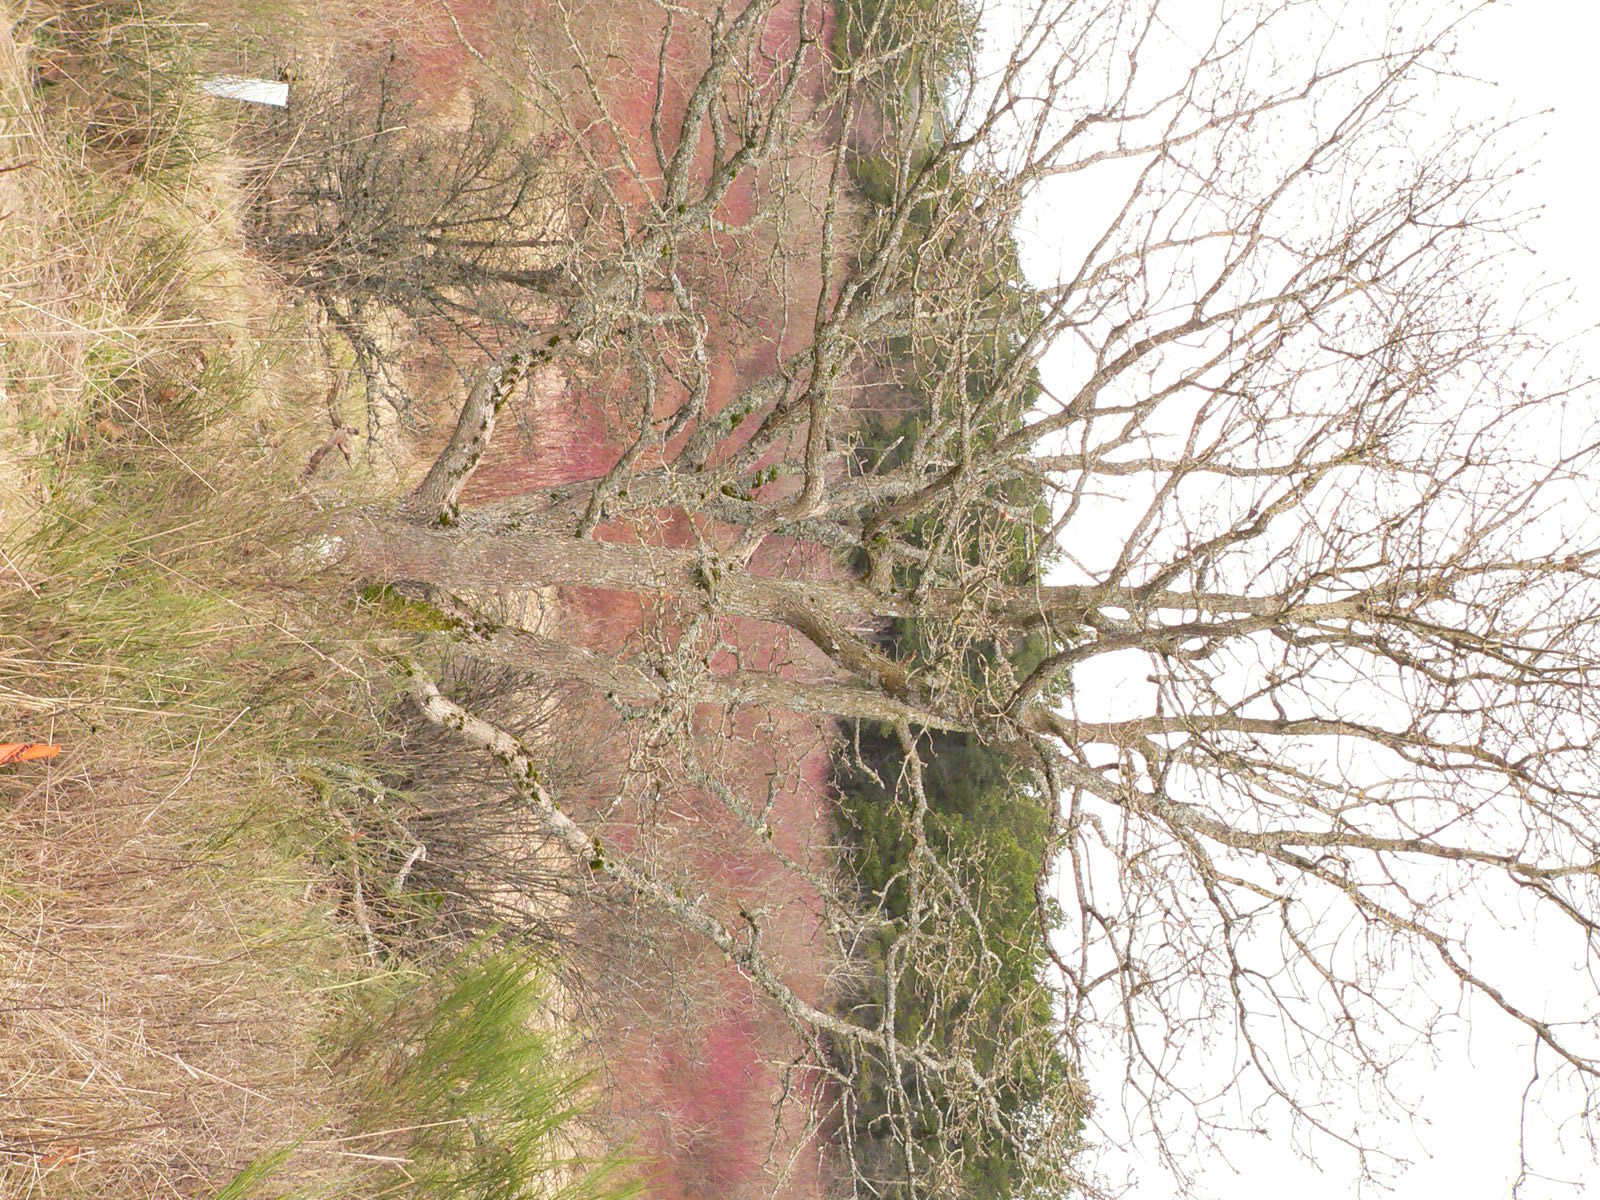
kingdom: Plantae
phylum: Tracheophyta
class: Magnoliopsida
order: Fagales
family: Fagaceae
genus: Quercus
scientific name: Quercus garryana
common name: Garry oak
